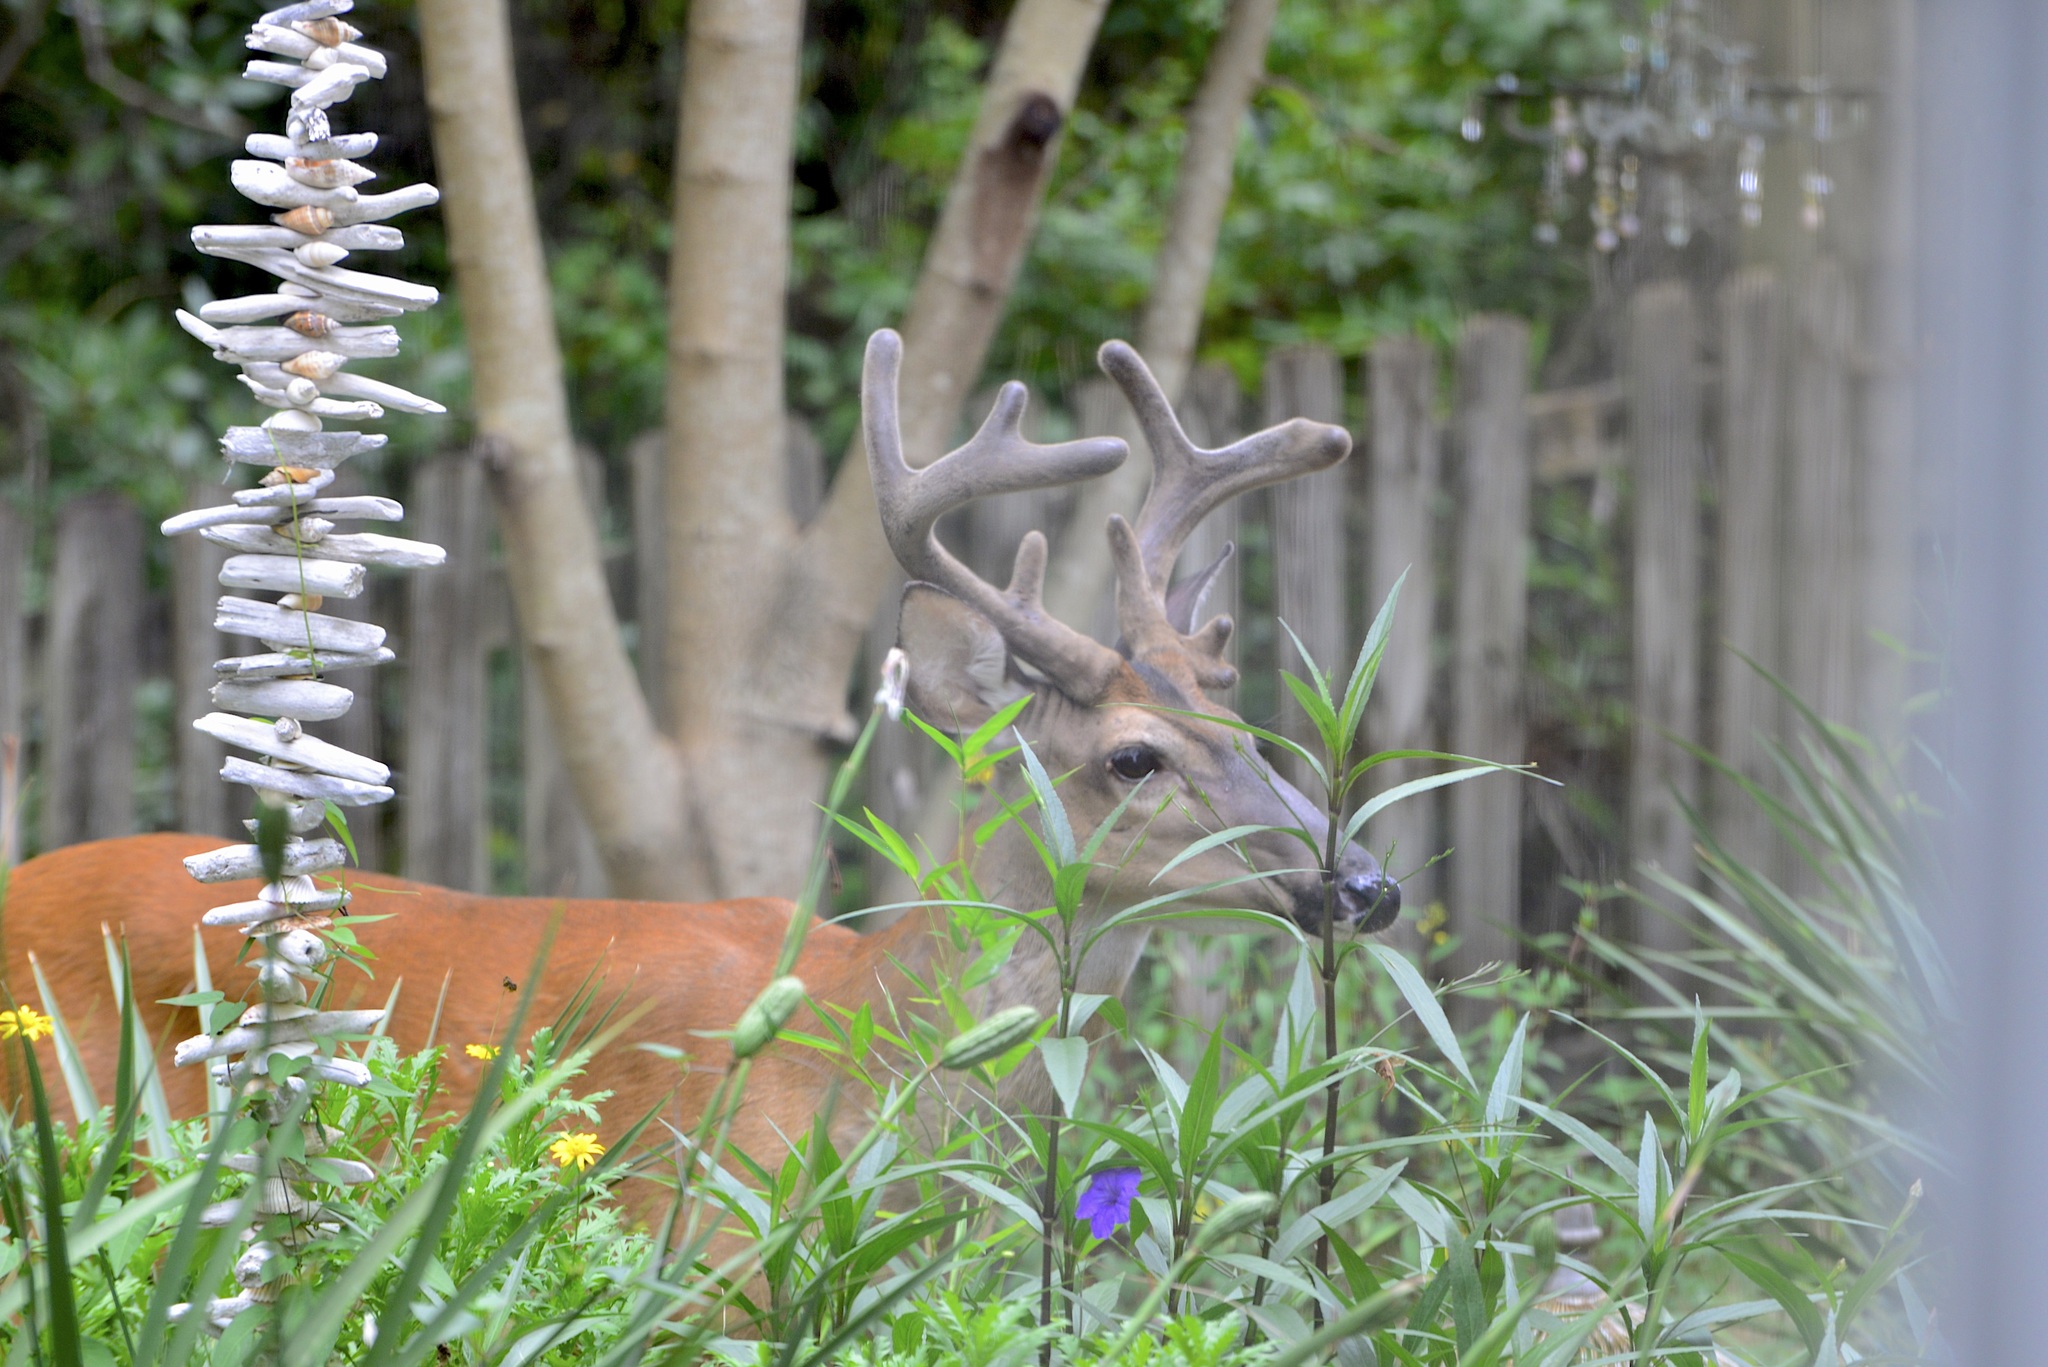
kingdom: Animalia
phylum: Chordata
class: Mammalia
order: Artiodactyla
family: Cervidae
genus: Odocoileus
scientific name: Odocoileus virginianus
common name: White-tailed deer
